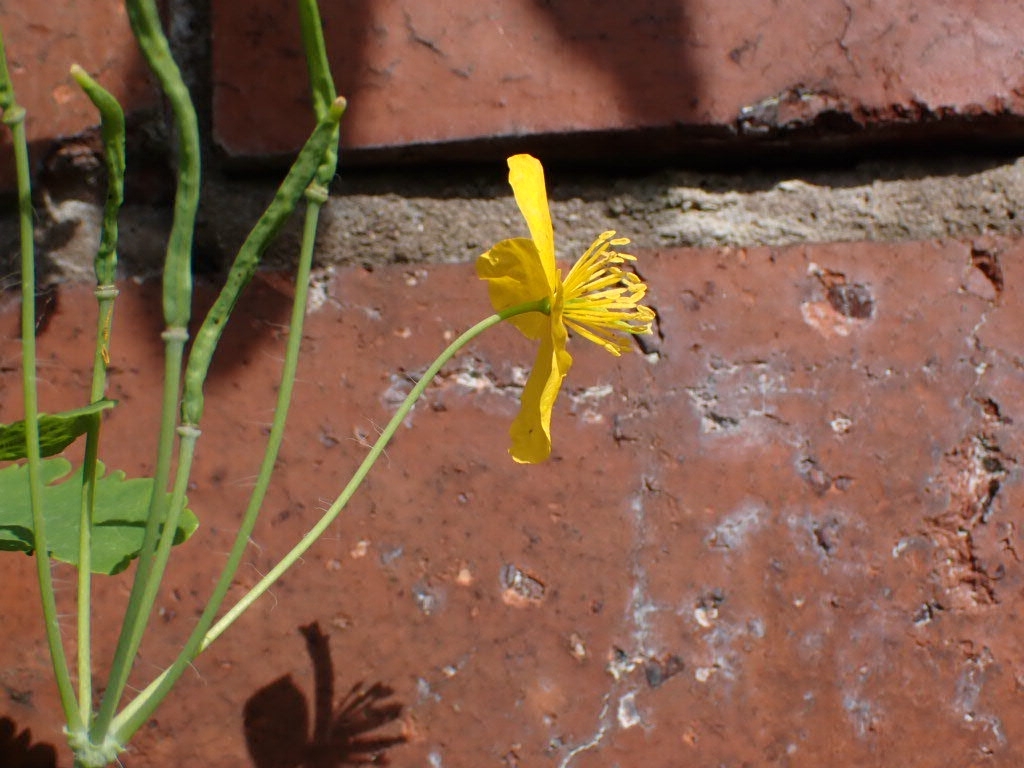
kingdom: Plantae
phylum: Tracheophyta
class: Magnoliopsida
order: Ranunculales
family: Papaveraceae
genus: Chelidonium
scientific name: Chelidonium majus
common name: Greater celandine
